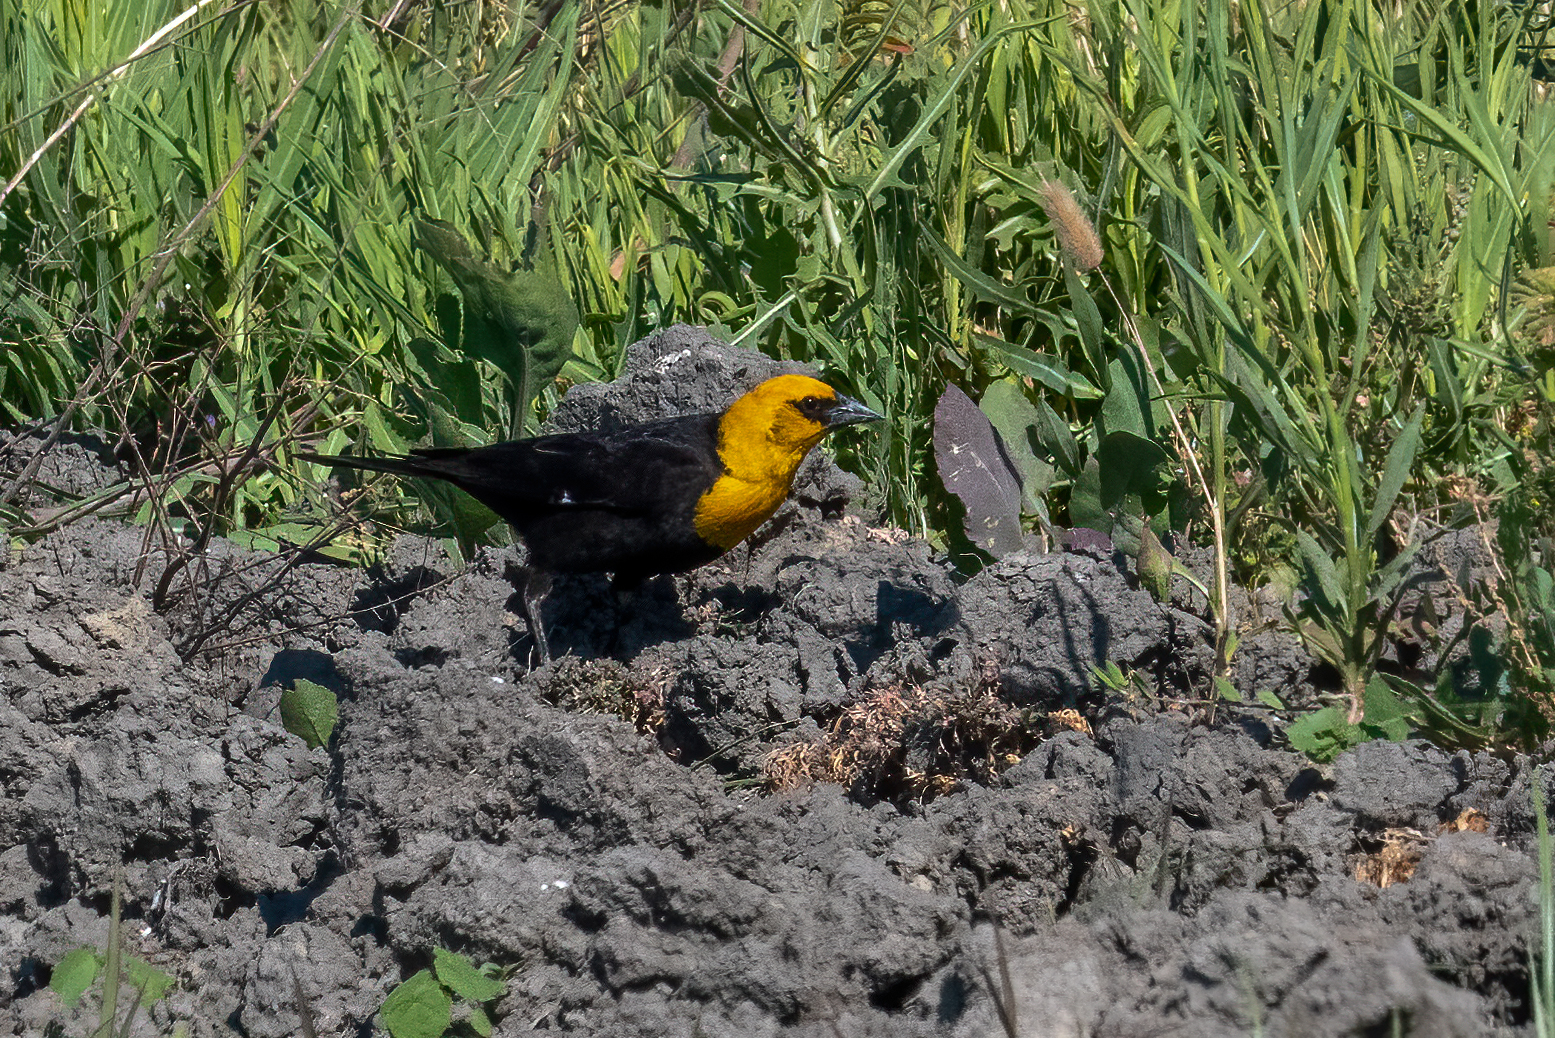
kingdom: Animalia
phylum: Chordata
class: Aves
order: Passeriformes
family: Icteridae
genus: Xanthocephalus
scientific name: Xanthocephalus xanthocephalus
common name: Yellow-headed blackbird
